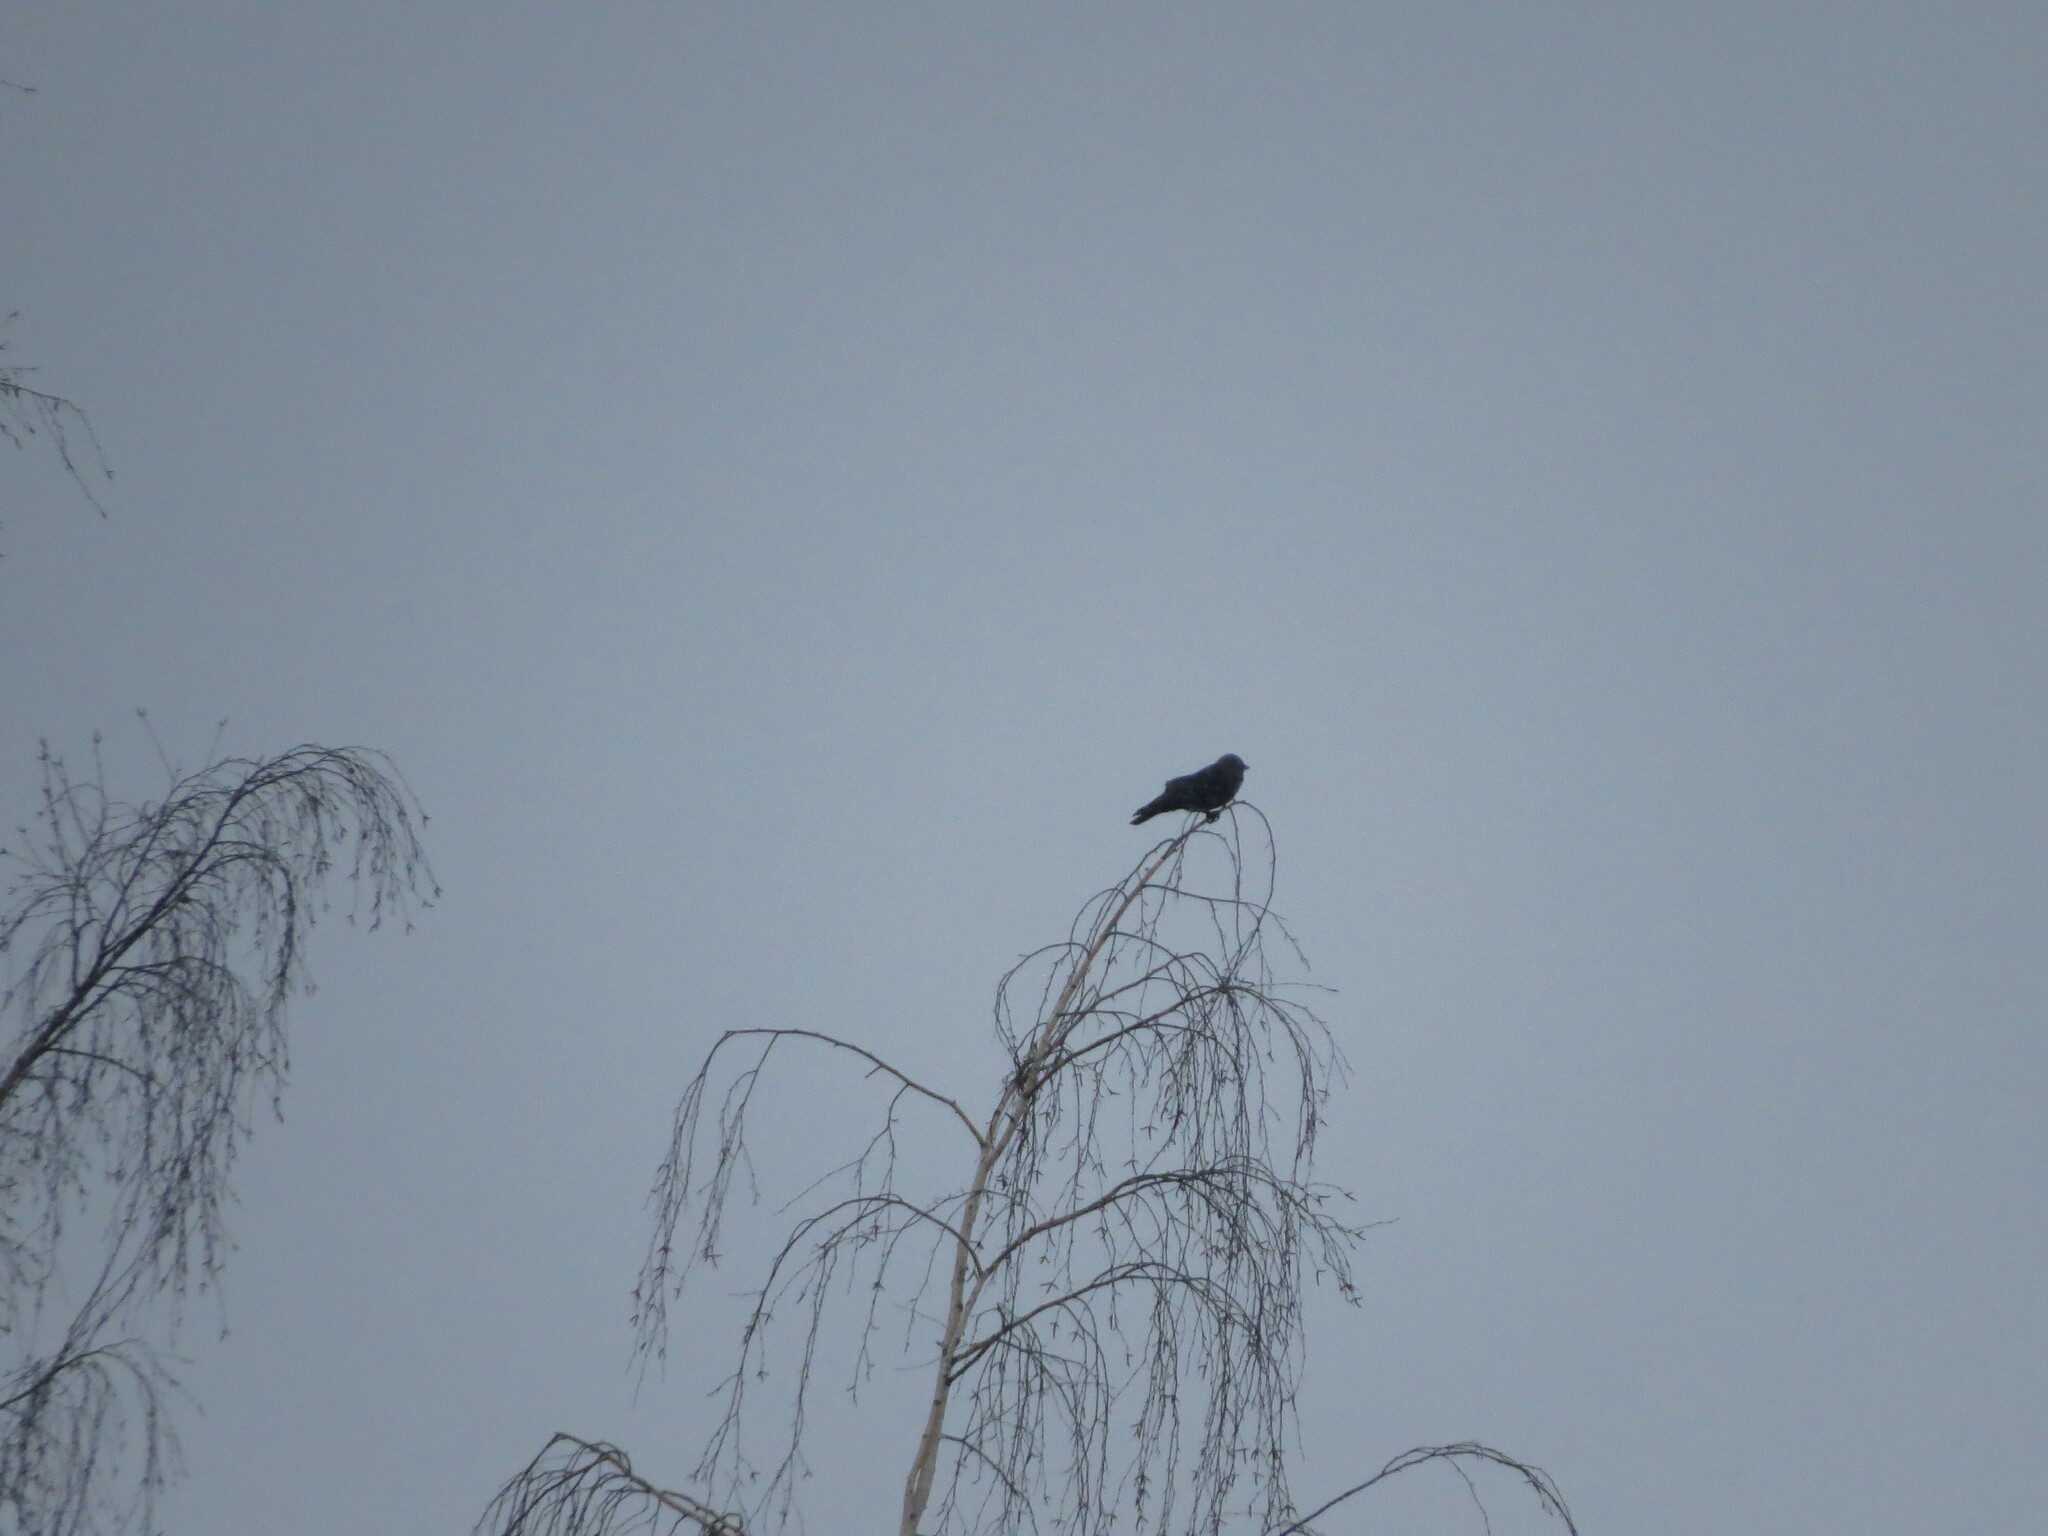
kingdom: Animalia
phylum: Chordata
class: Aves
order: Passeriformes
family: Corvidae
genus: Coloeus
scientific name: Coloeus monedula
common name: Western jackdaw
